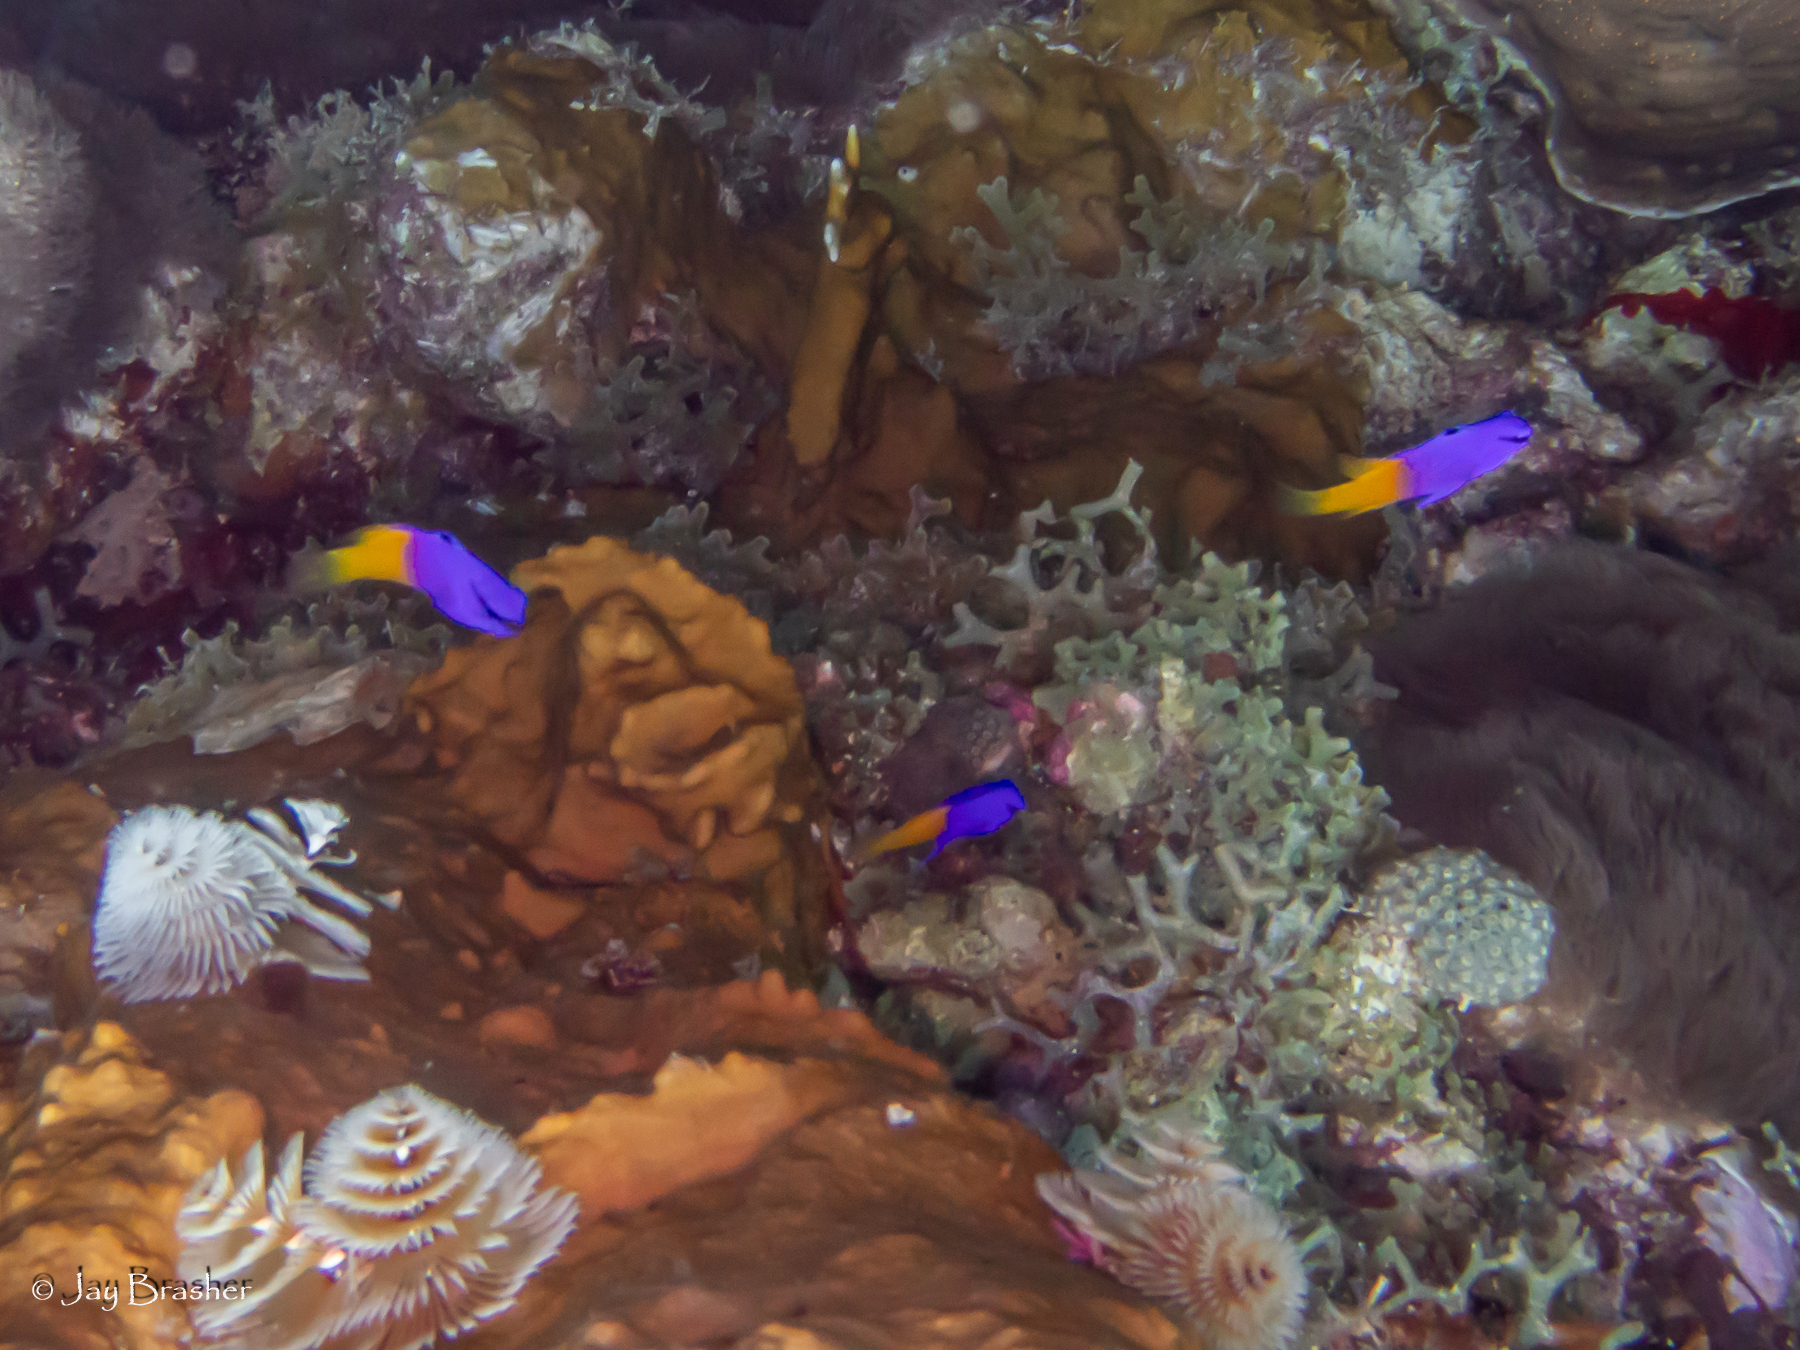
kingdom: Animalia
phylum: Chordata
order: Perciformes
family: Grammatidae
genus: Gramma
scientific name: Gramma loreto
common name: Fairy basslet
